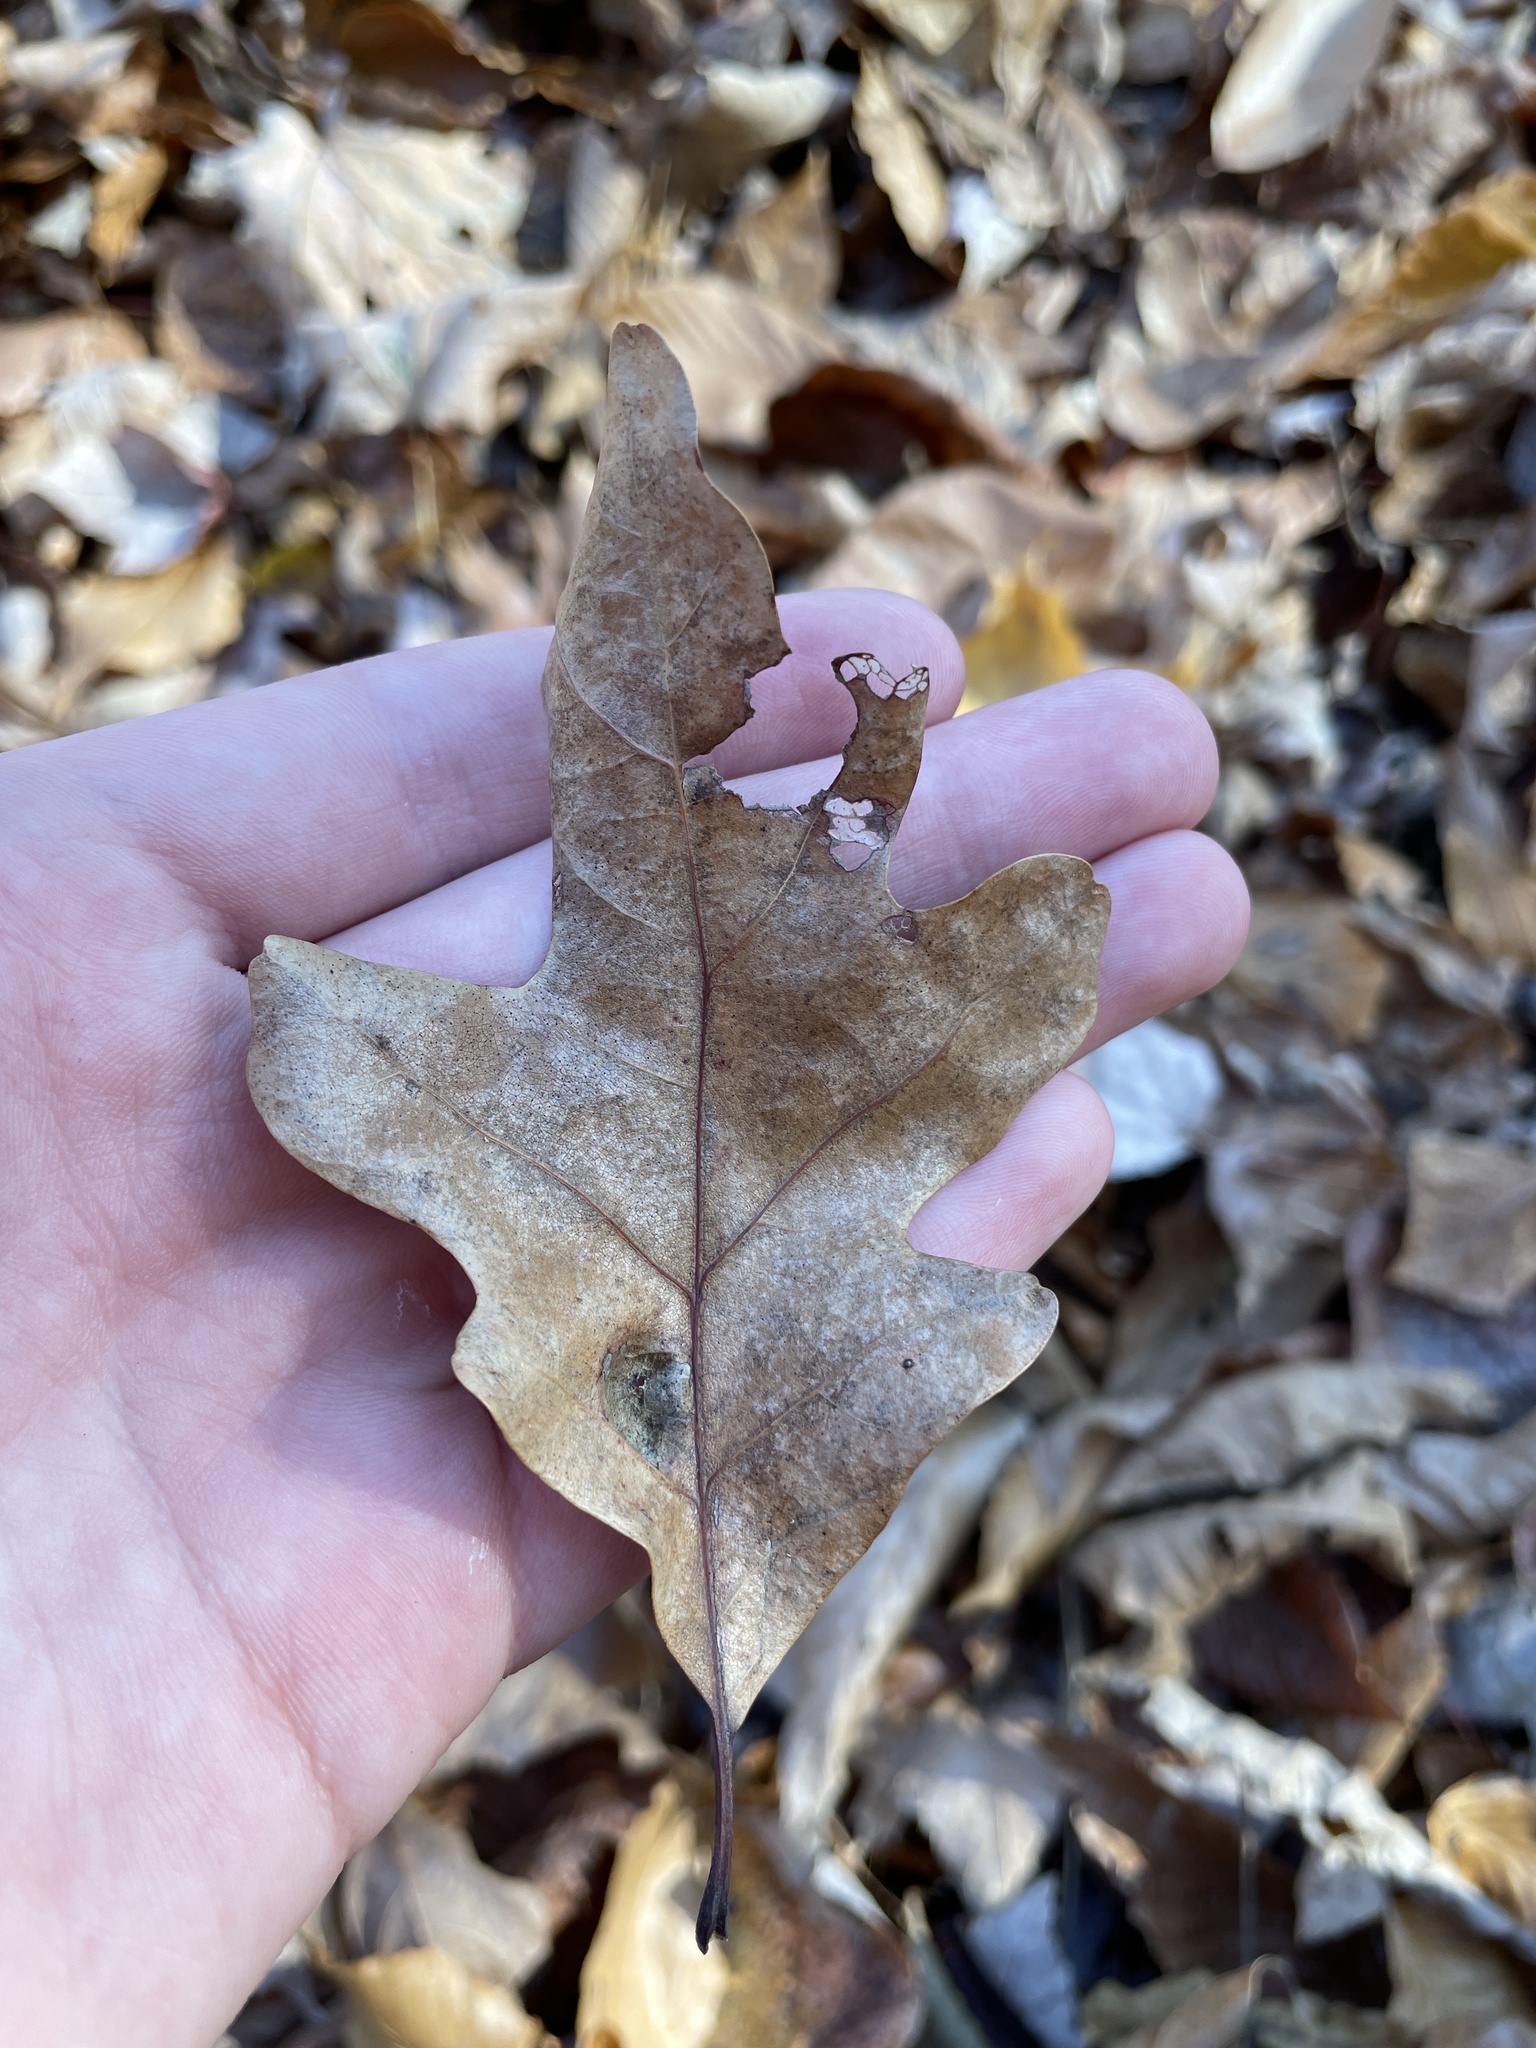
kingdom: Plantae
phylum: Tracheophyta
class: Magnoliopsida
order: Fagales
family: Fagaceae
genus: Quercus
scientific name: Quercus alba
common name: White oak
